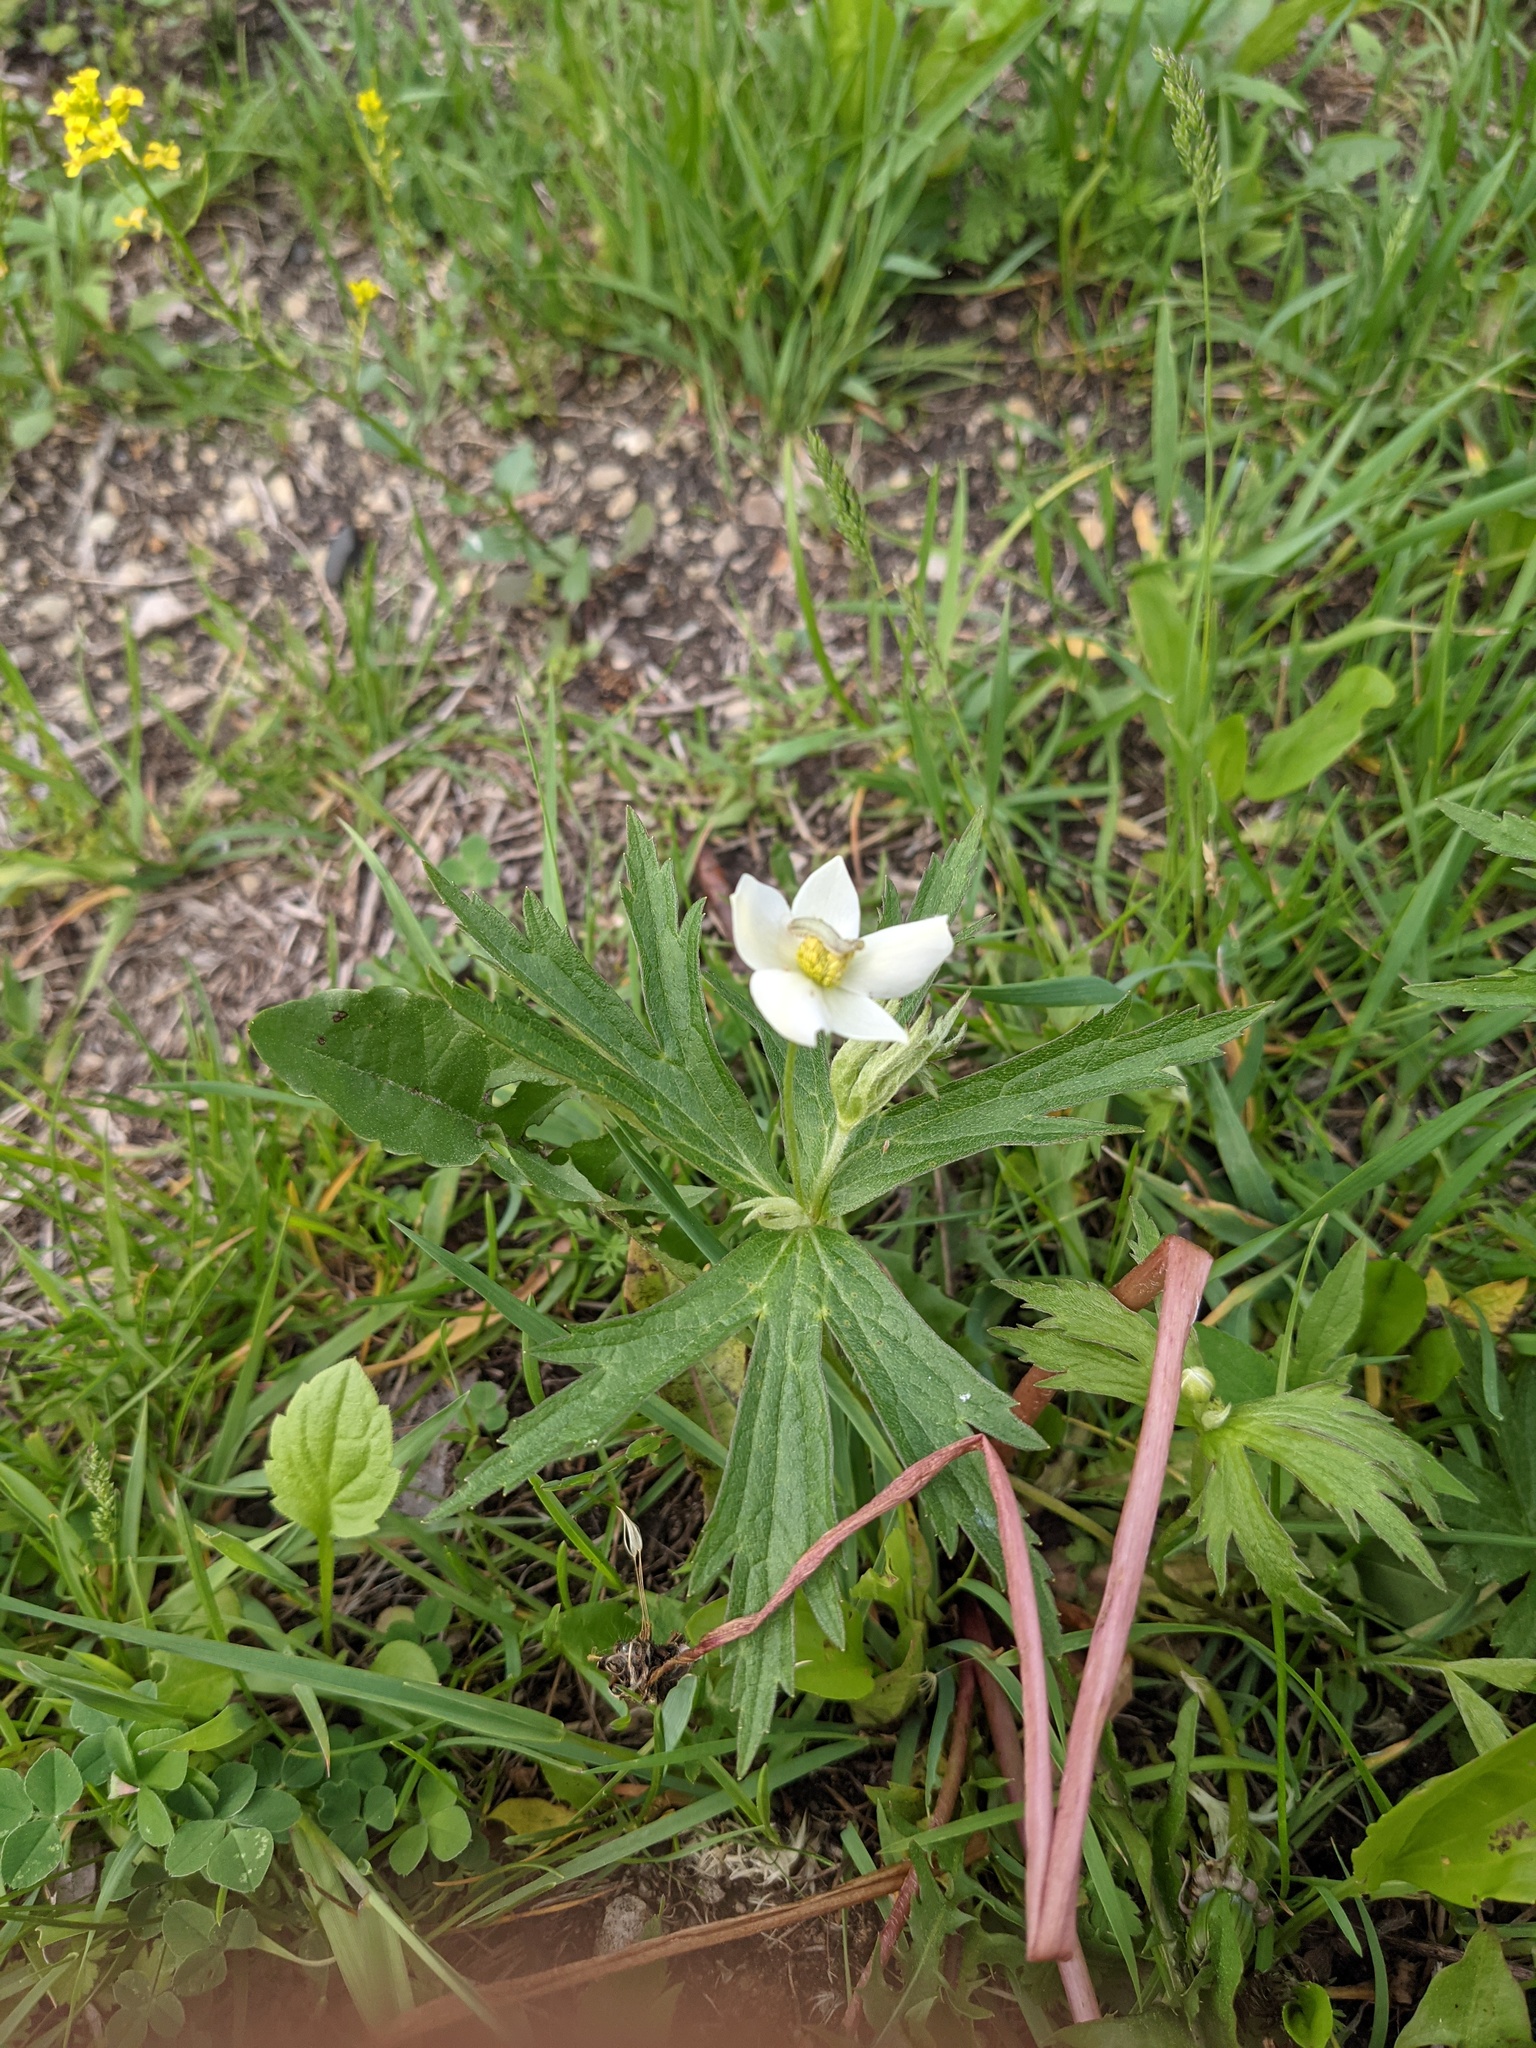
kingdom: Plantae
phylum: Tracheophyta
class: Magnoliopsida
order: Ranunculales
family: Ranunculaceae
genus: Anemonastrum
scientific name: Anemonastrum canadense
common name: Canada anemone
